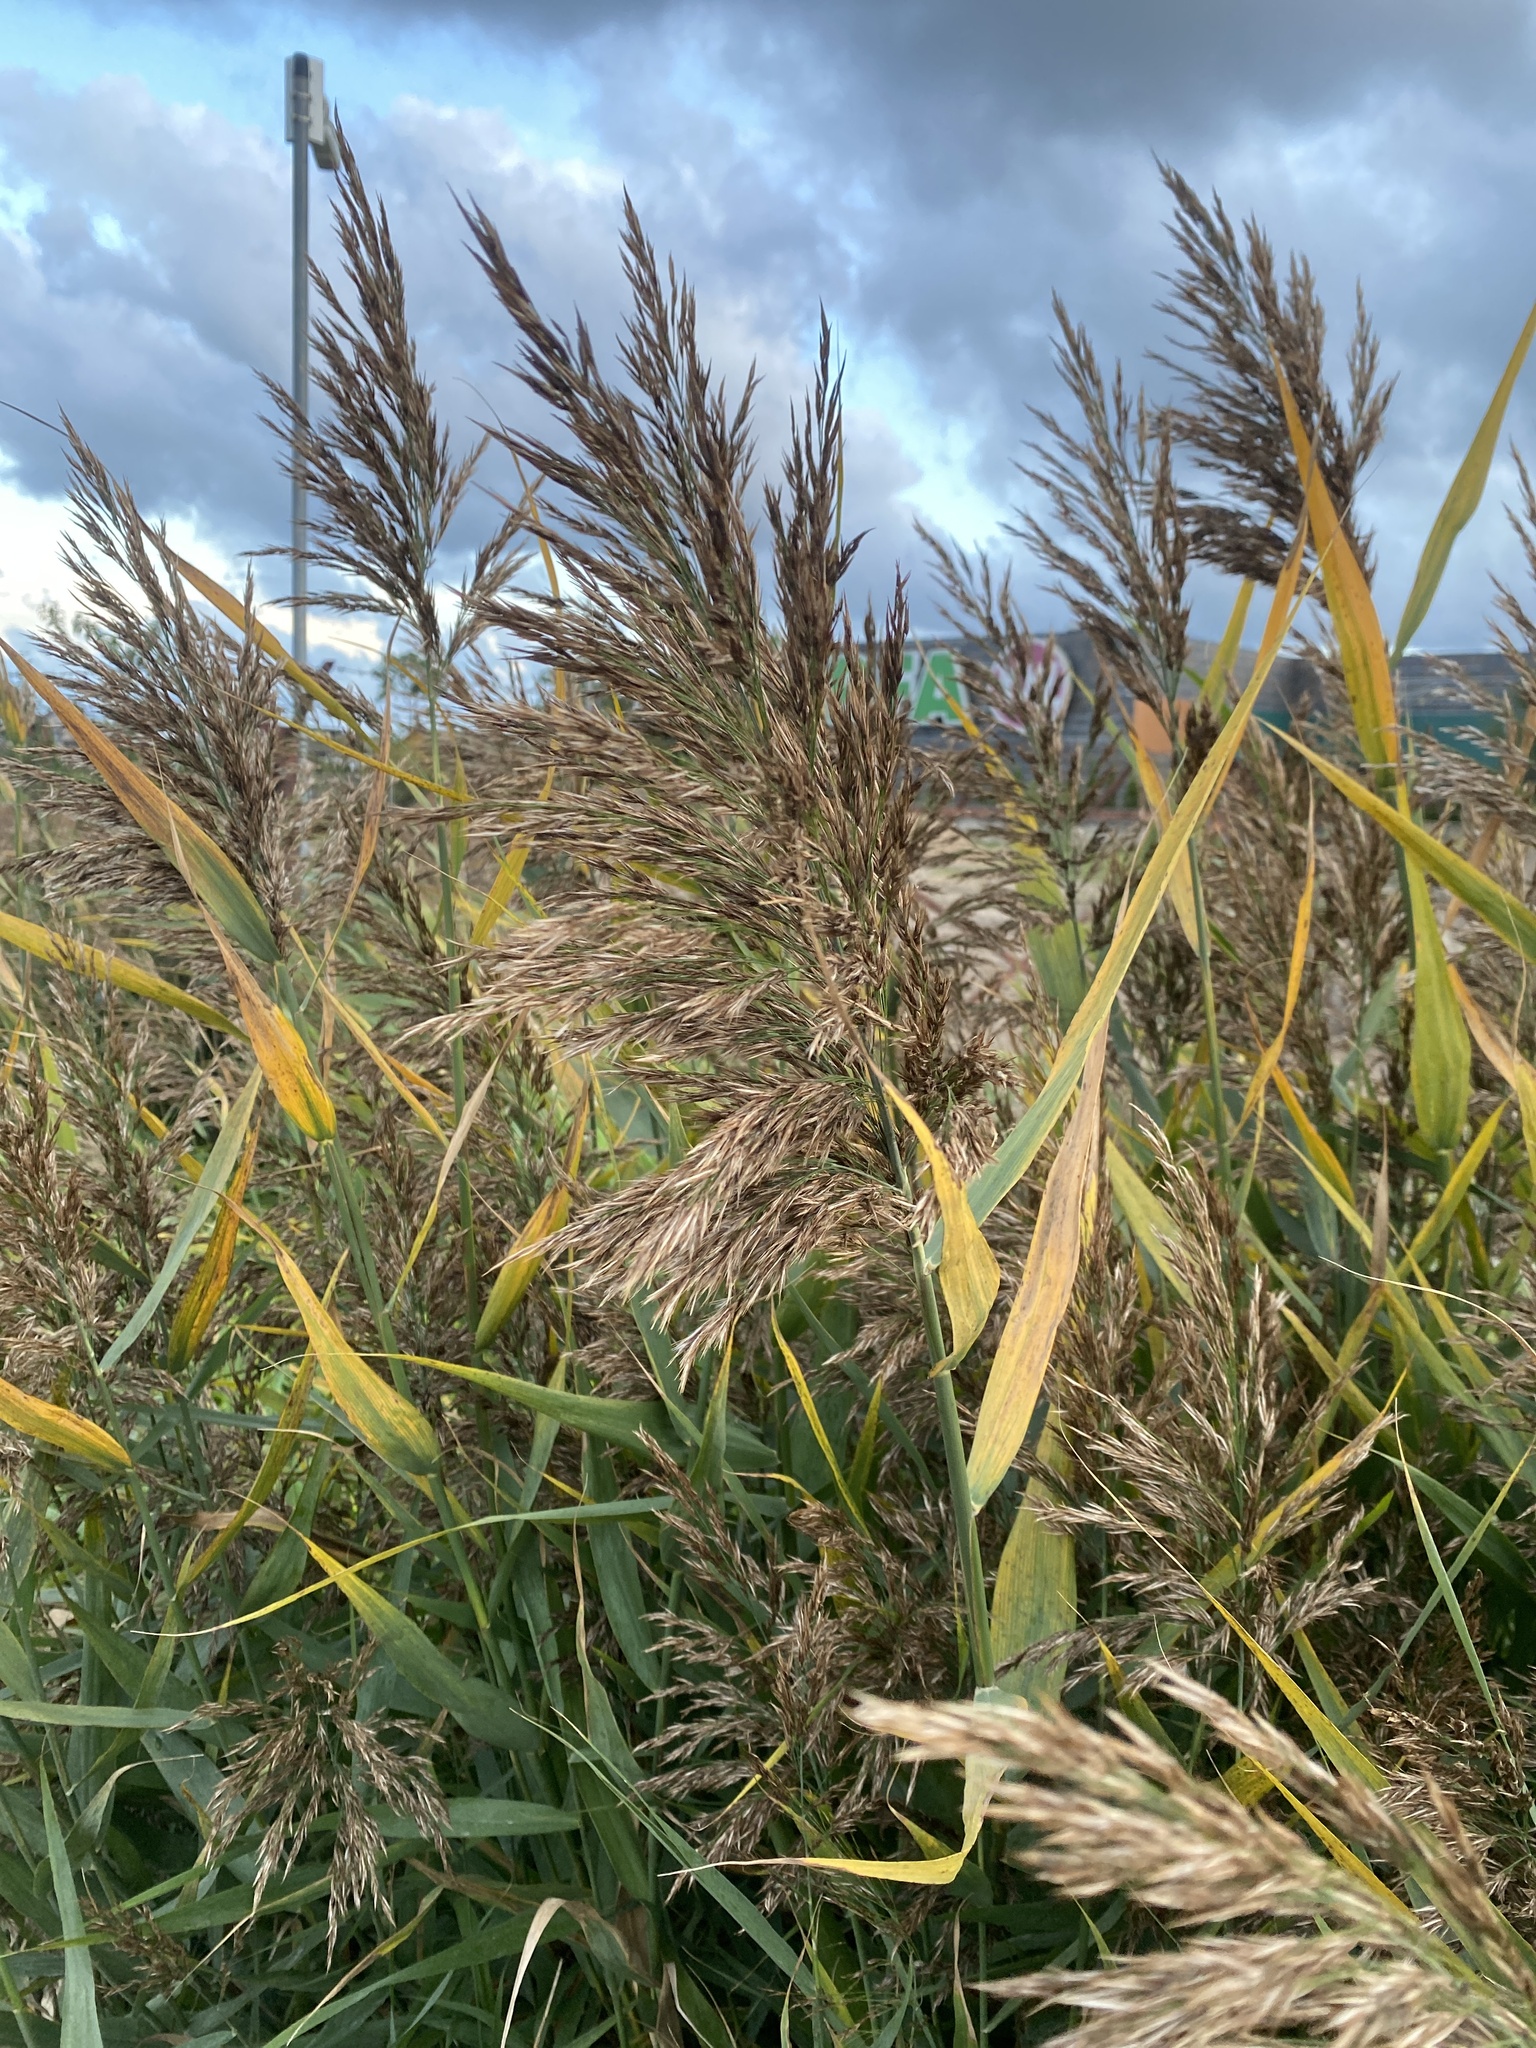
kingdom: Plantae
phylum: Tracheophyta
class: Liliopsida
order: Poales
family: Poaceae
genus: Phragmites
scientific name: Phragmites australis
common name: Common reed
